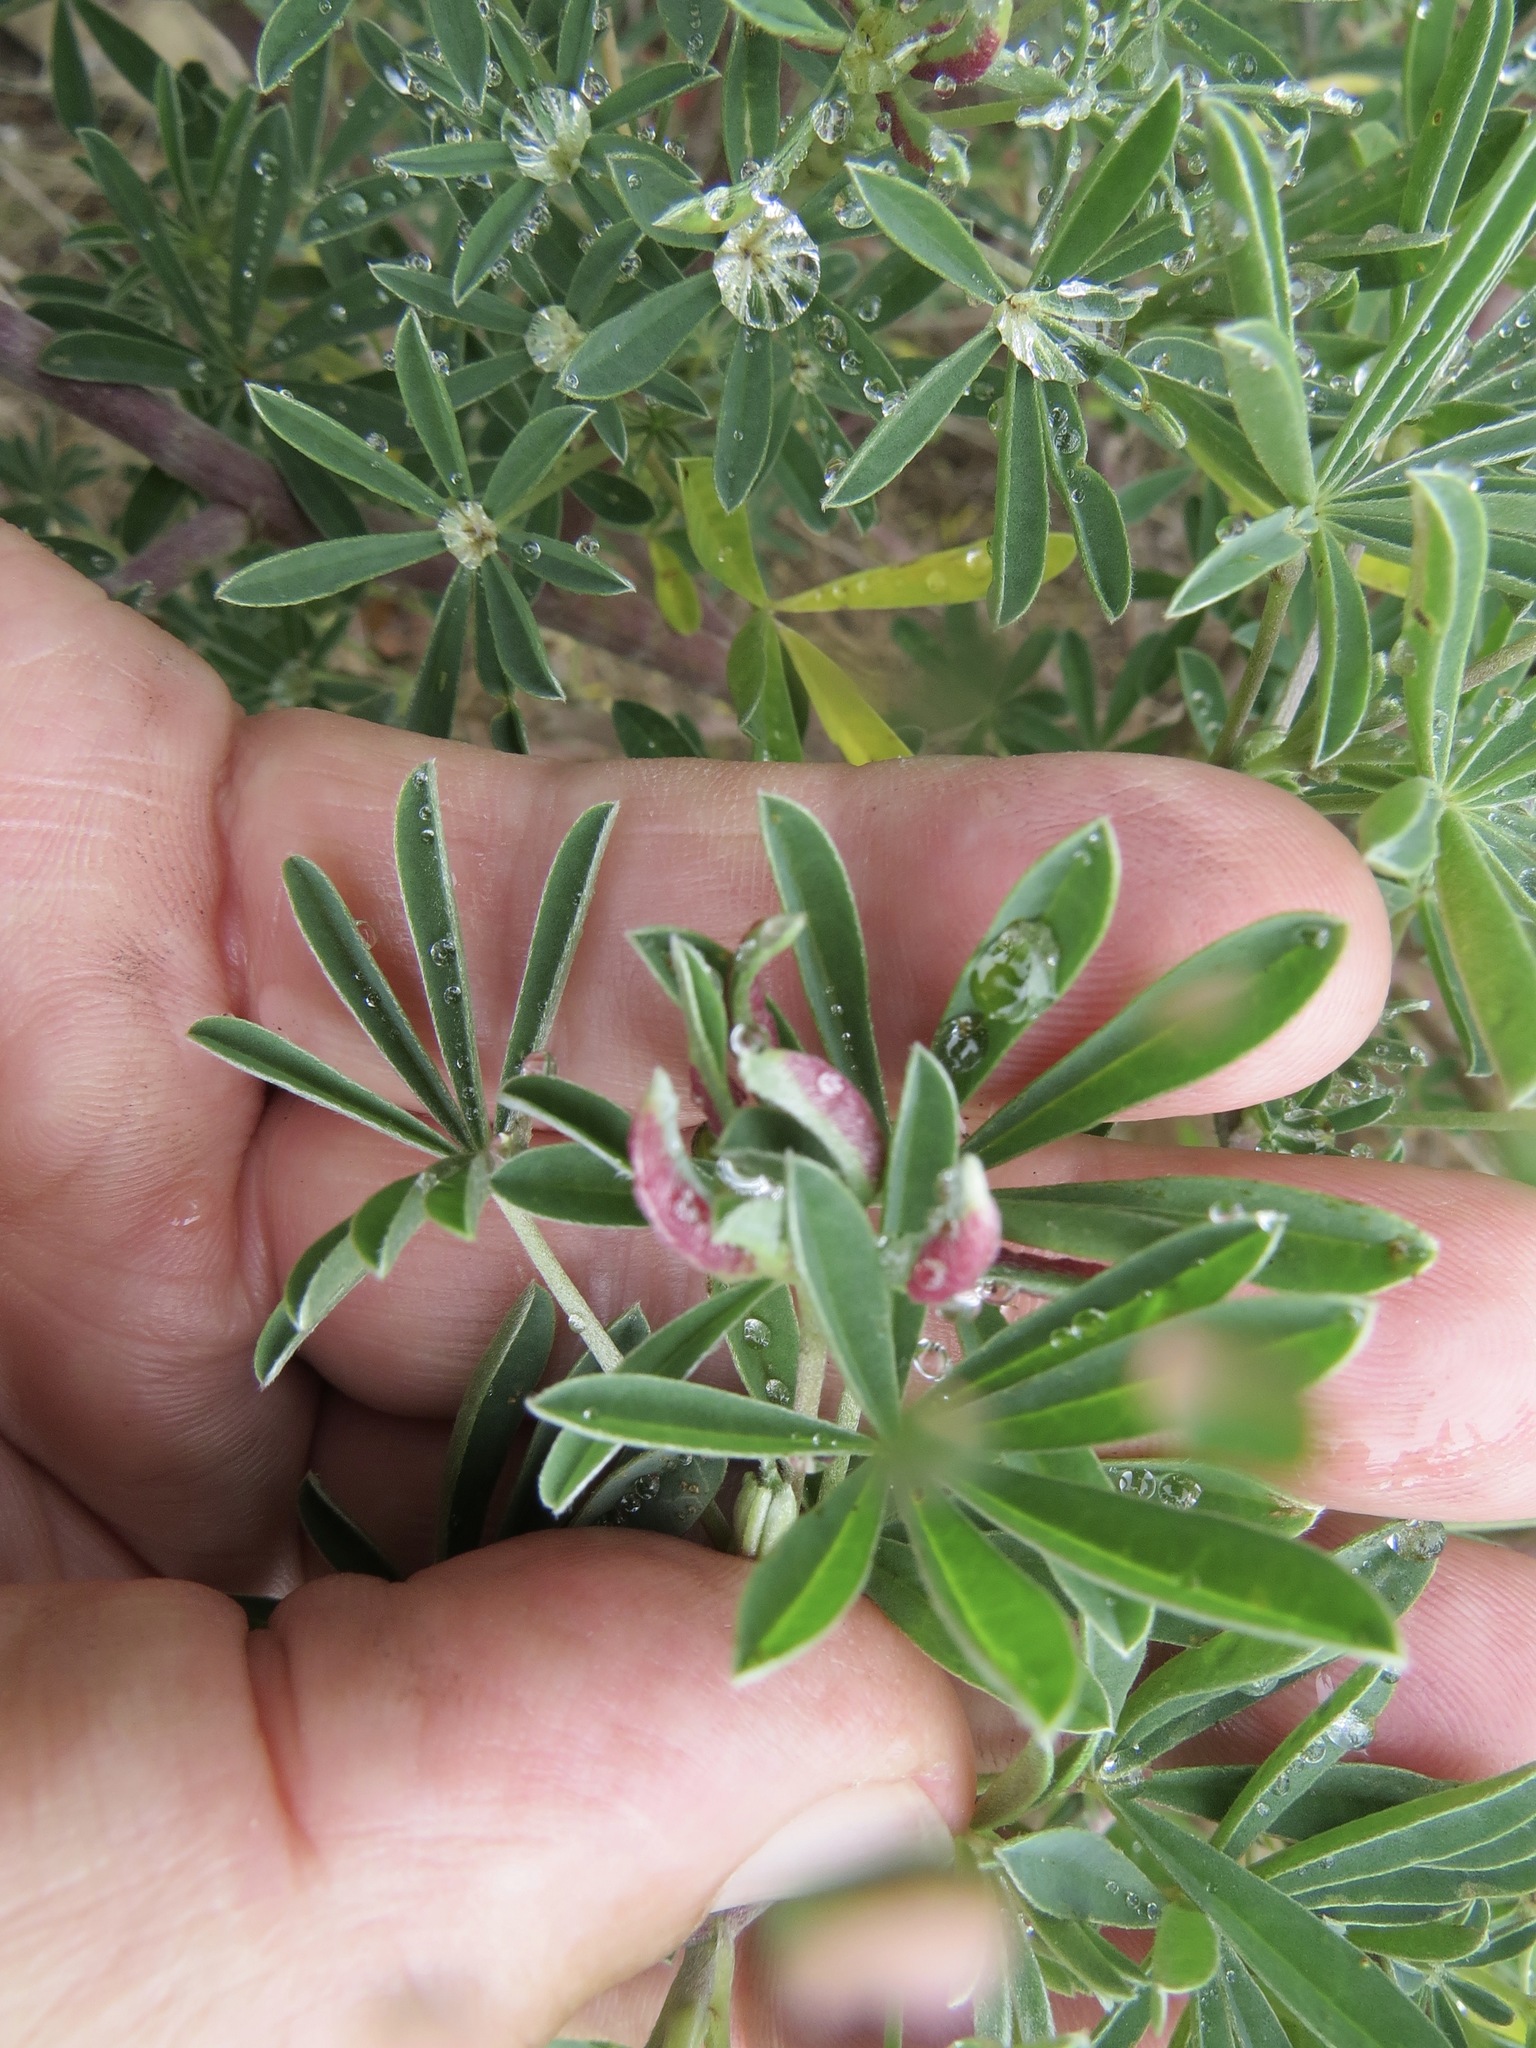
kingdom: Animalia
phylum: Arthropoda
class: Insecta
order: Diptera
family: Cecidomyiidae
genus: Dasineura
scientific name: Dasineura lupinorum
